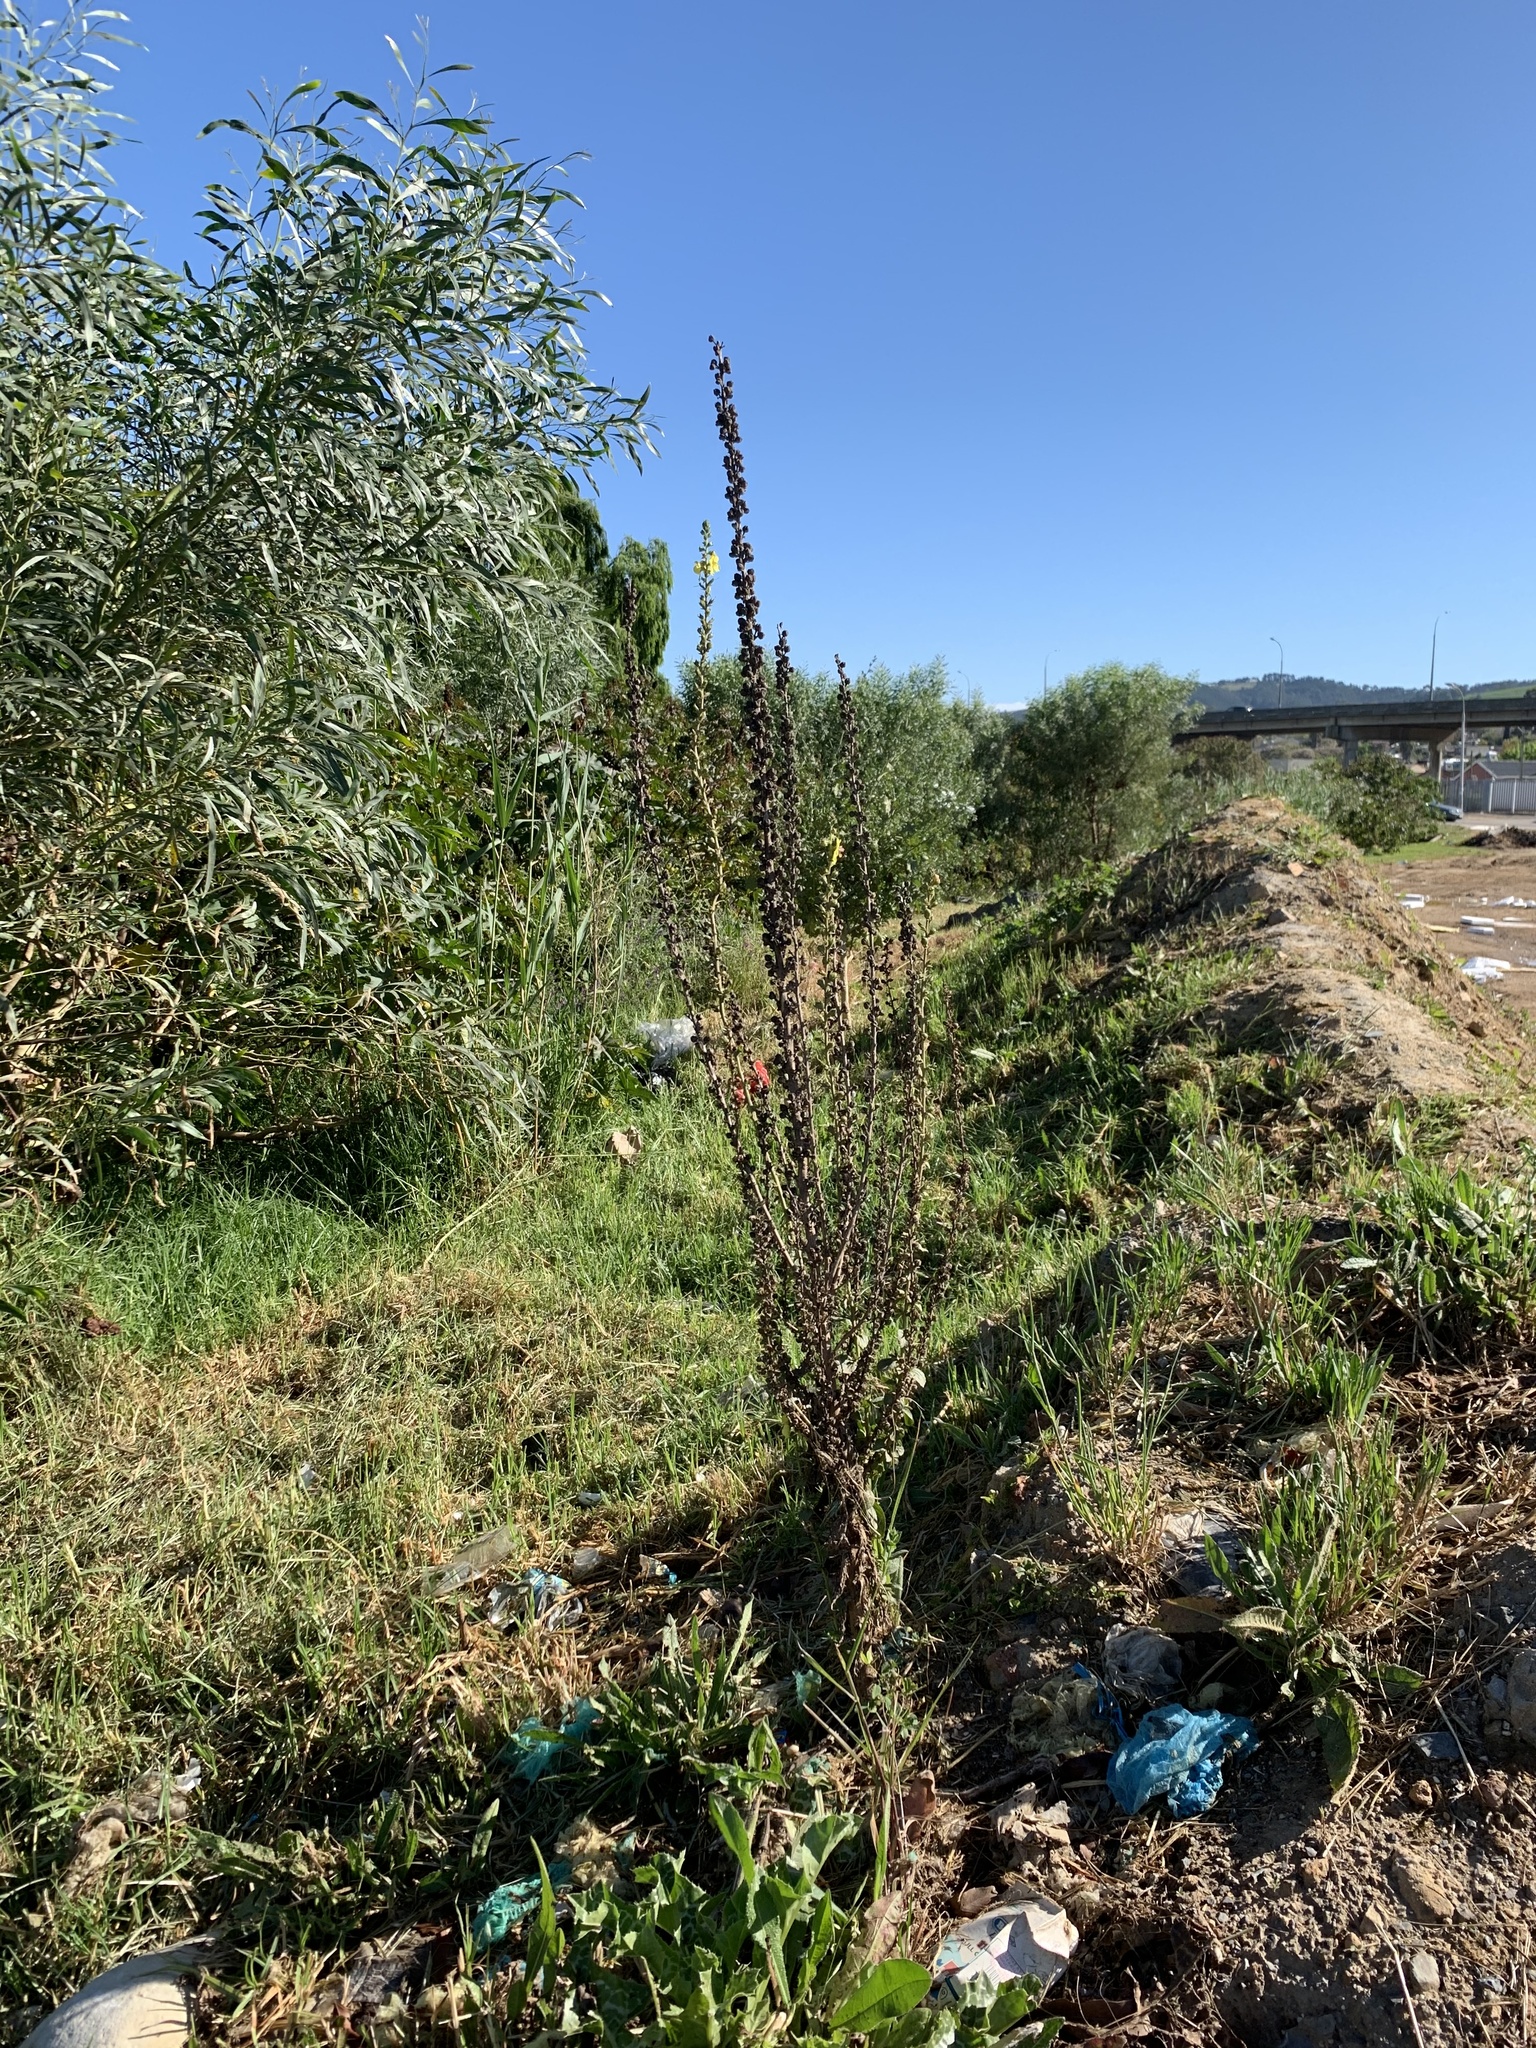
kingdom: Plantae
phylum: Tracheophyta
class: Magnoliopsida
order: Lamiales
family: Scrophulariaceae
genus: Verbascum
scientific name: Verbascum virgatum
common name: Twiggy mullein
